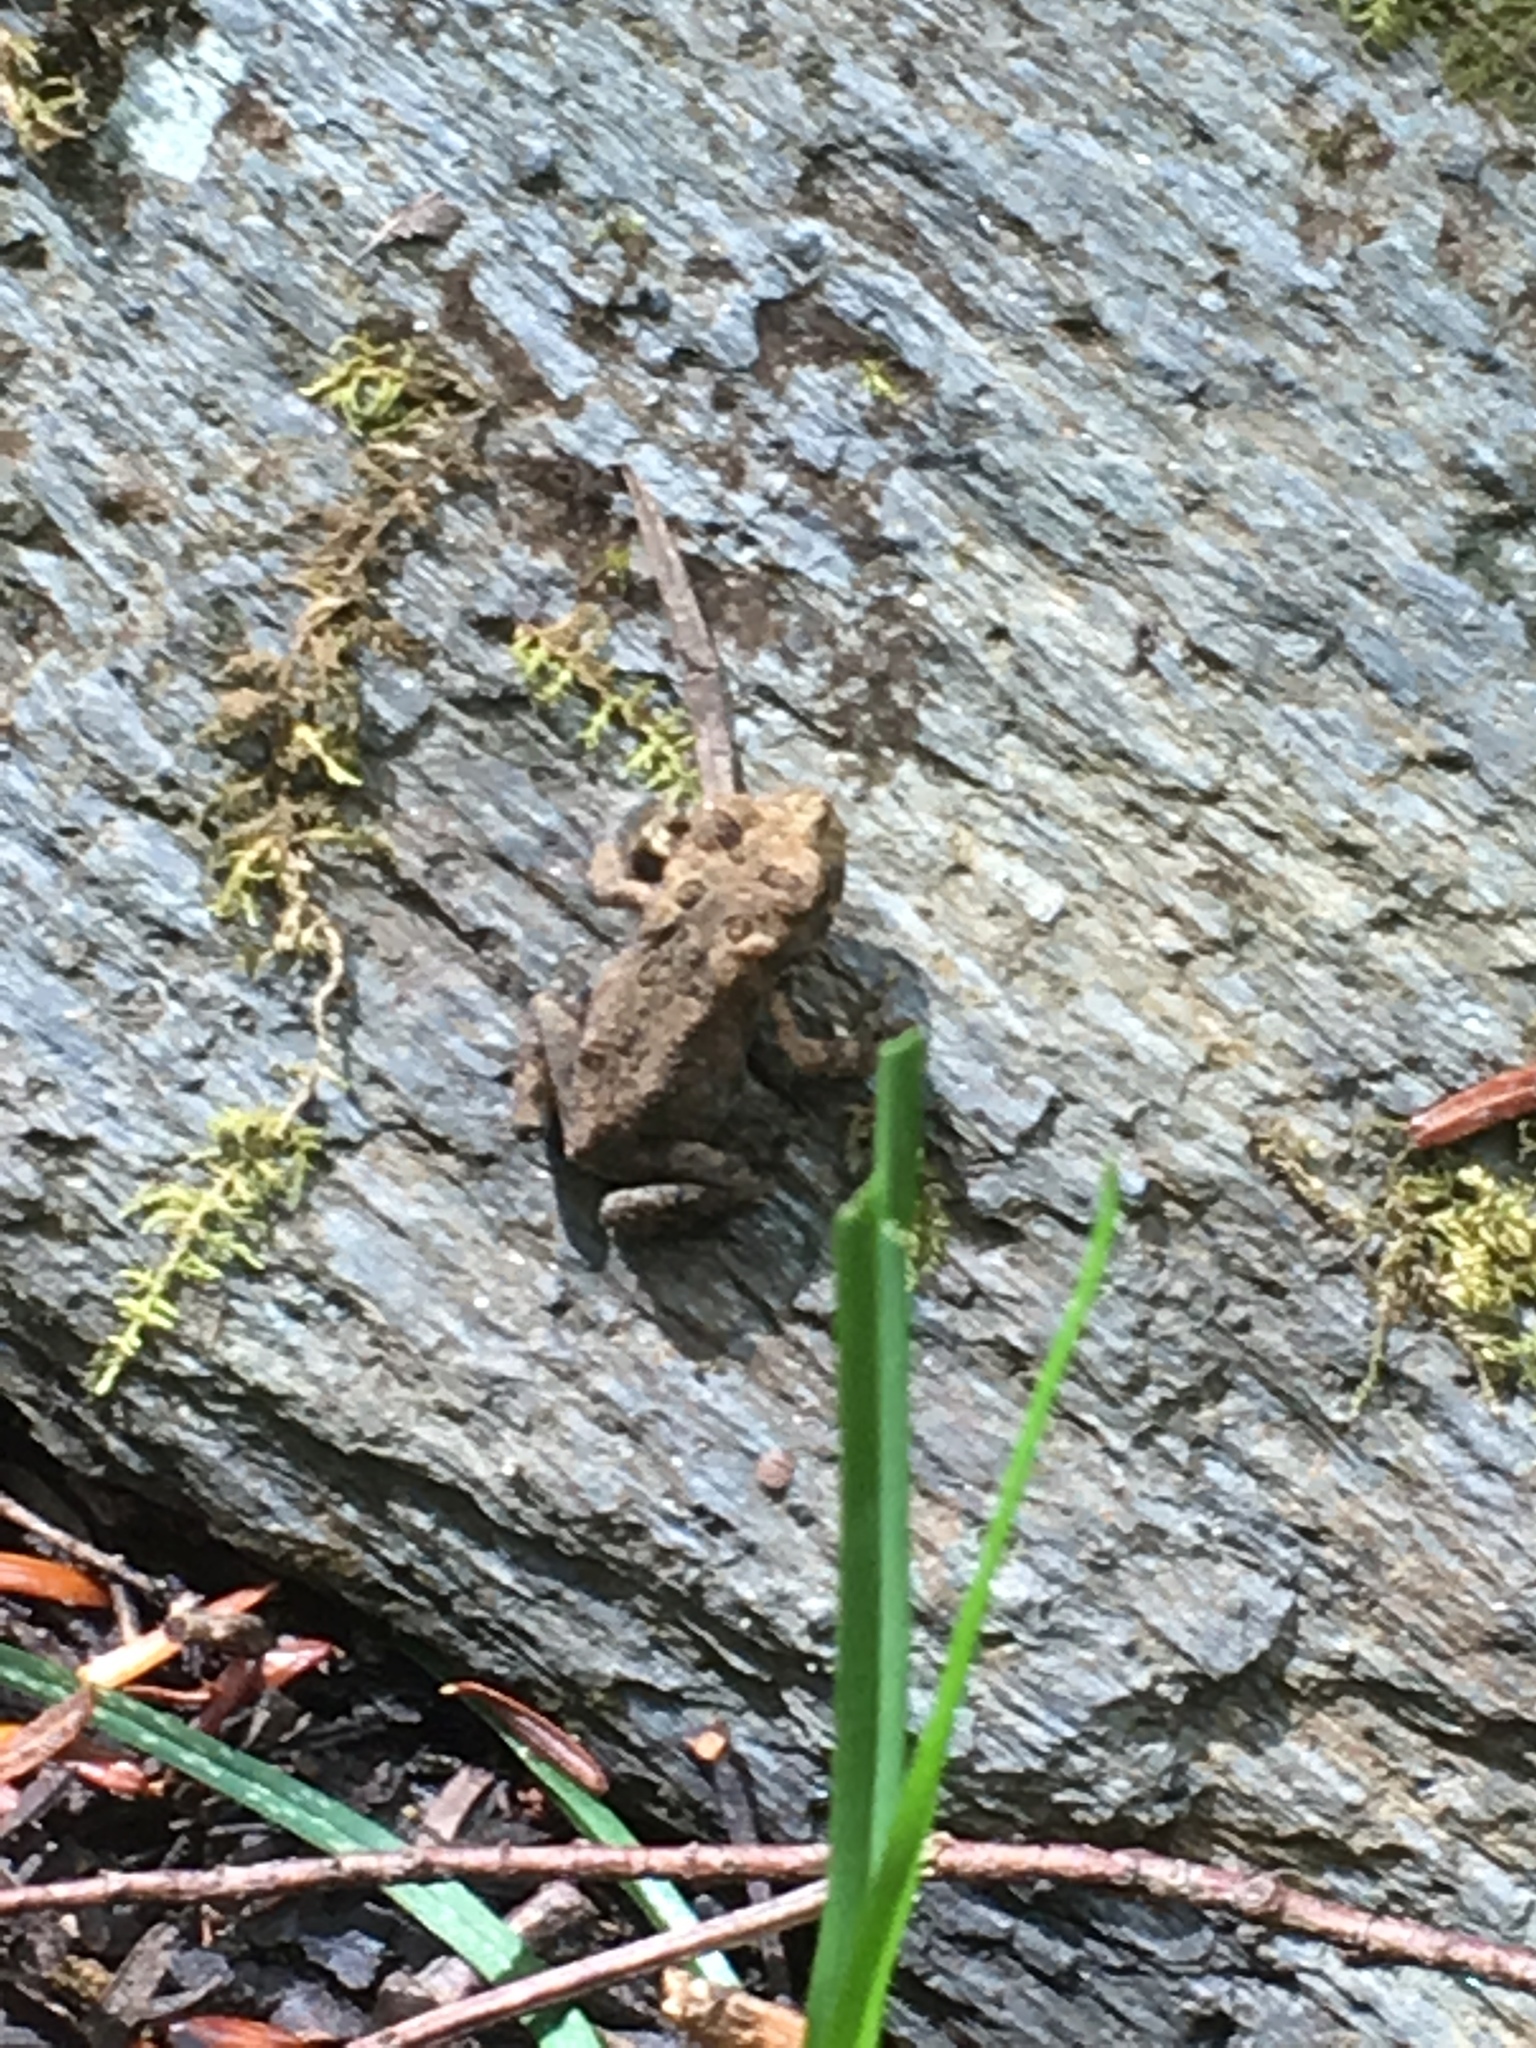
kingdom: Animalia
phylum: Chordata
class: Amphibia
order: Anura
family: Bufonidae
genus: Anaxyrus
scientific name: Anaxyrus americanus
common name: American toad
